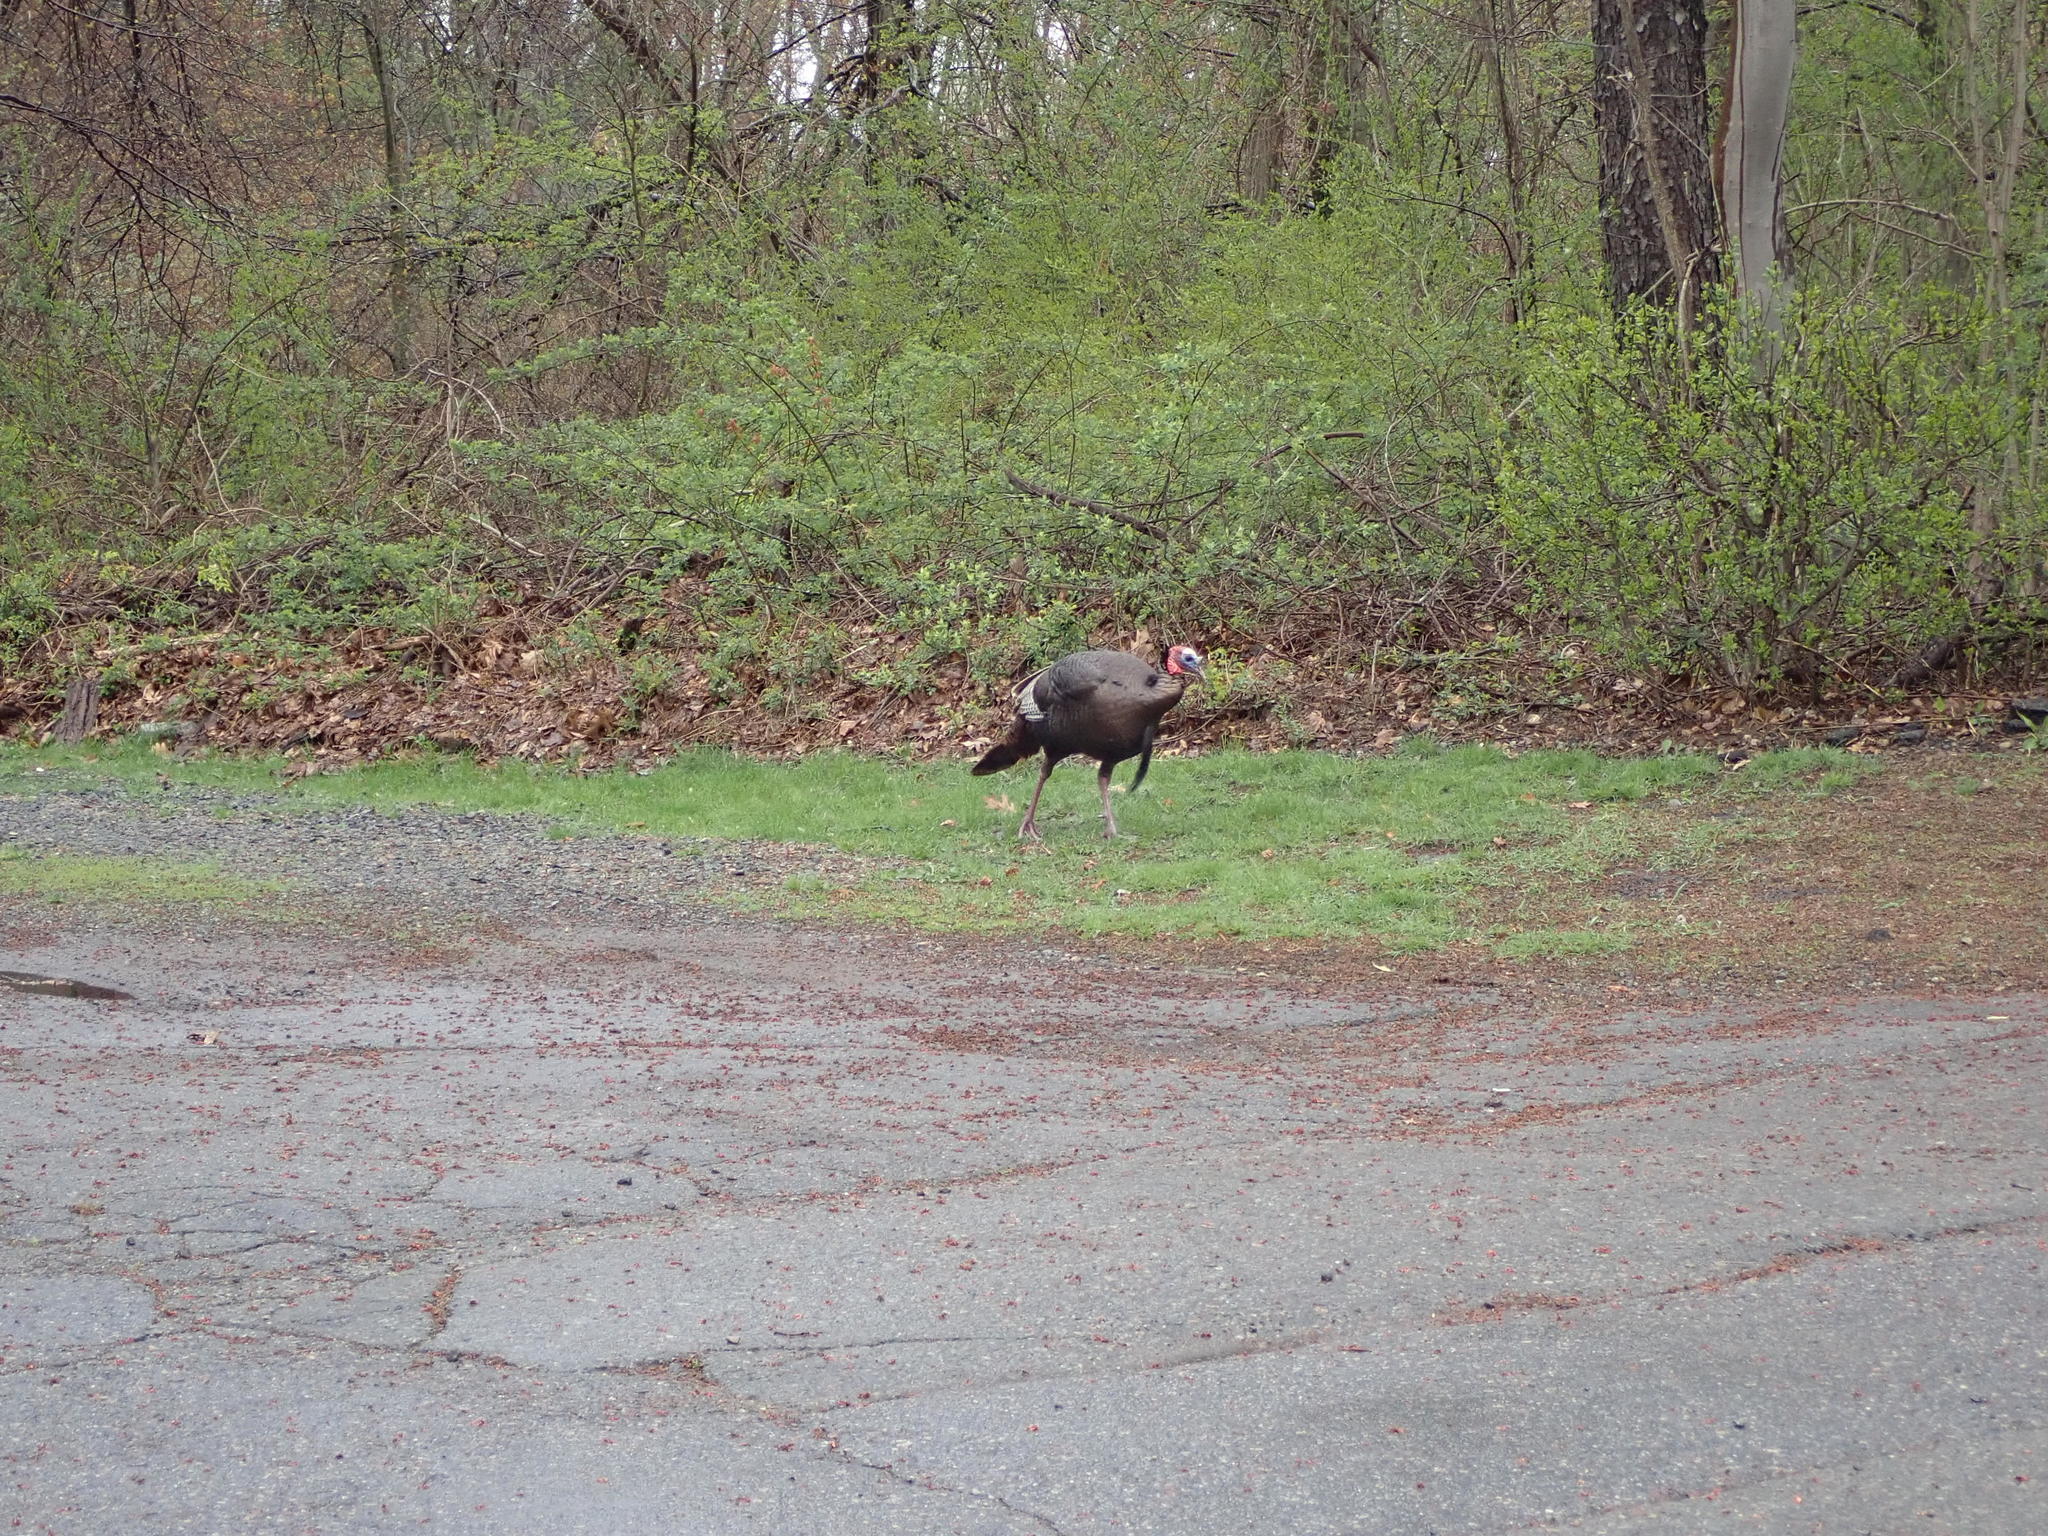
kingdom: Animalia
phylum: Chordata
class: Aves
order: Galliformes
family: Phasianidae
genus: Meleagris
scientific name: Meleagris gallopavo
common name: Wild turkey
